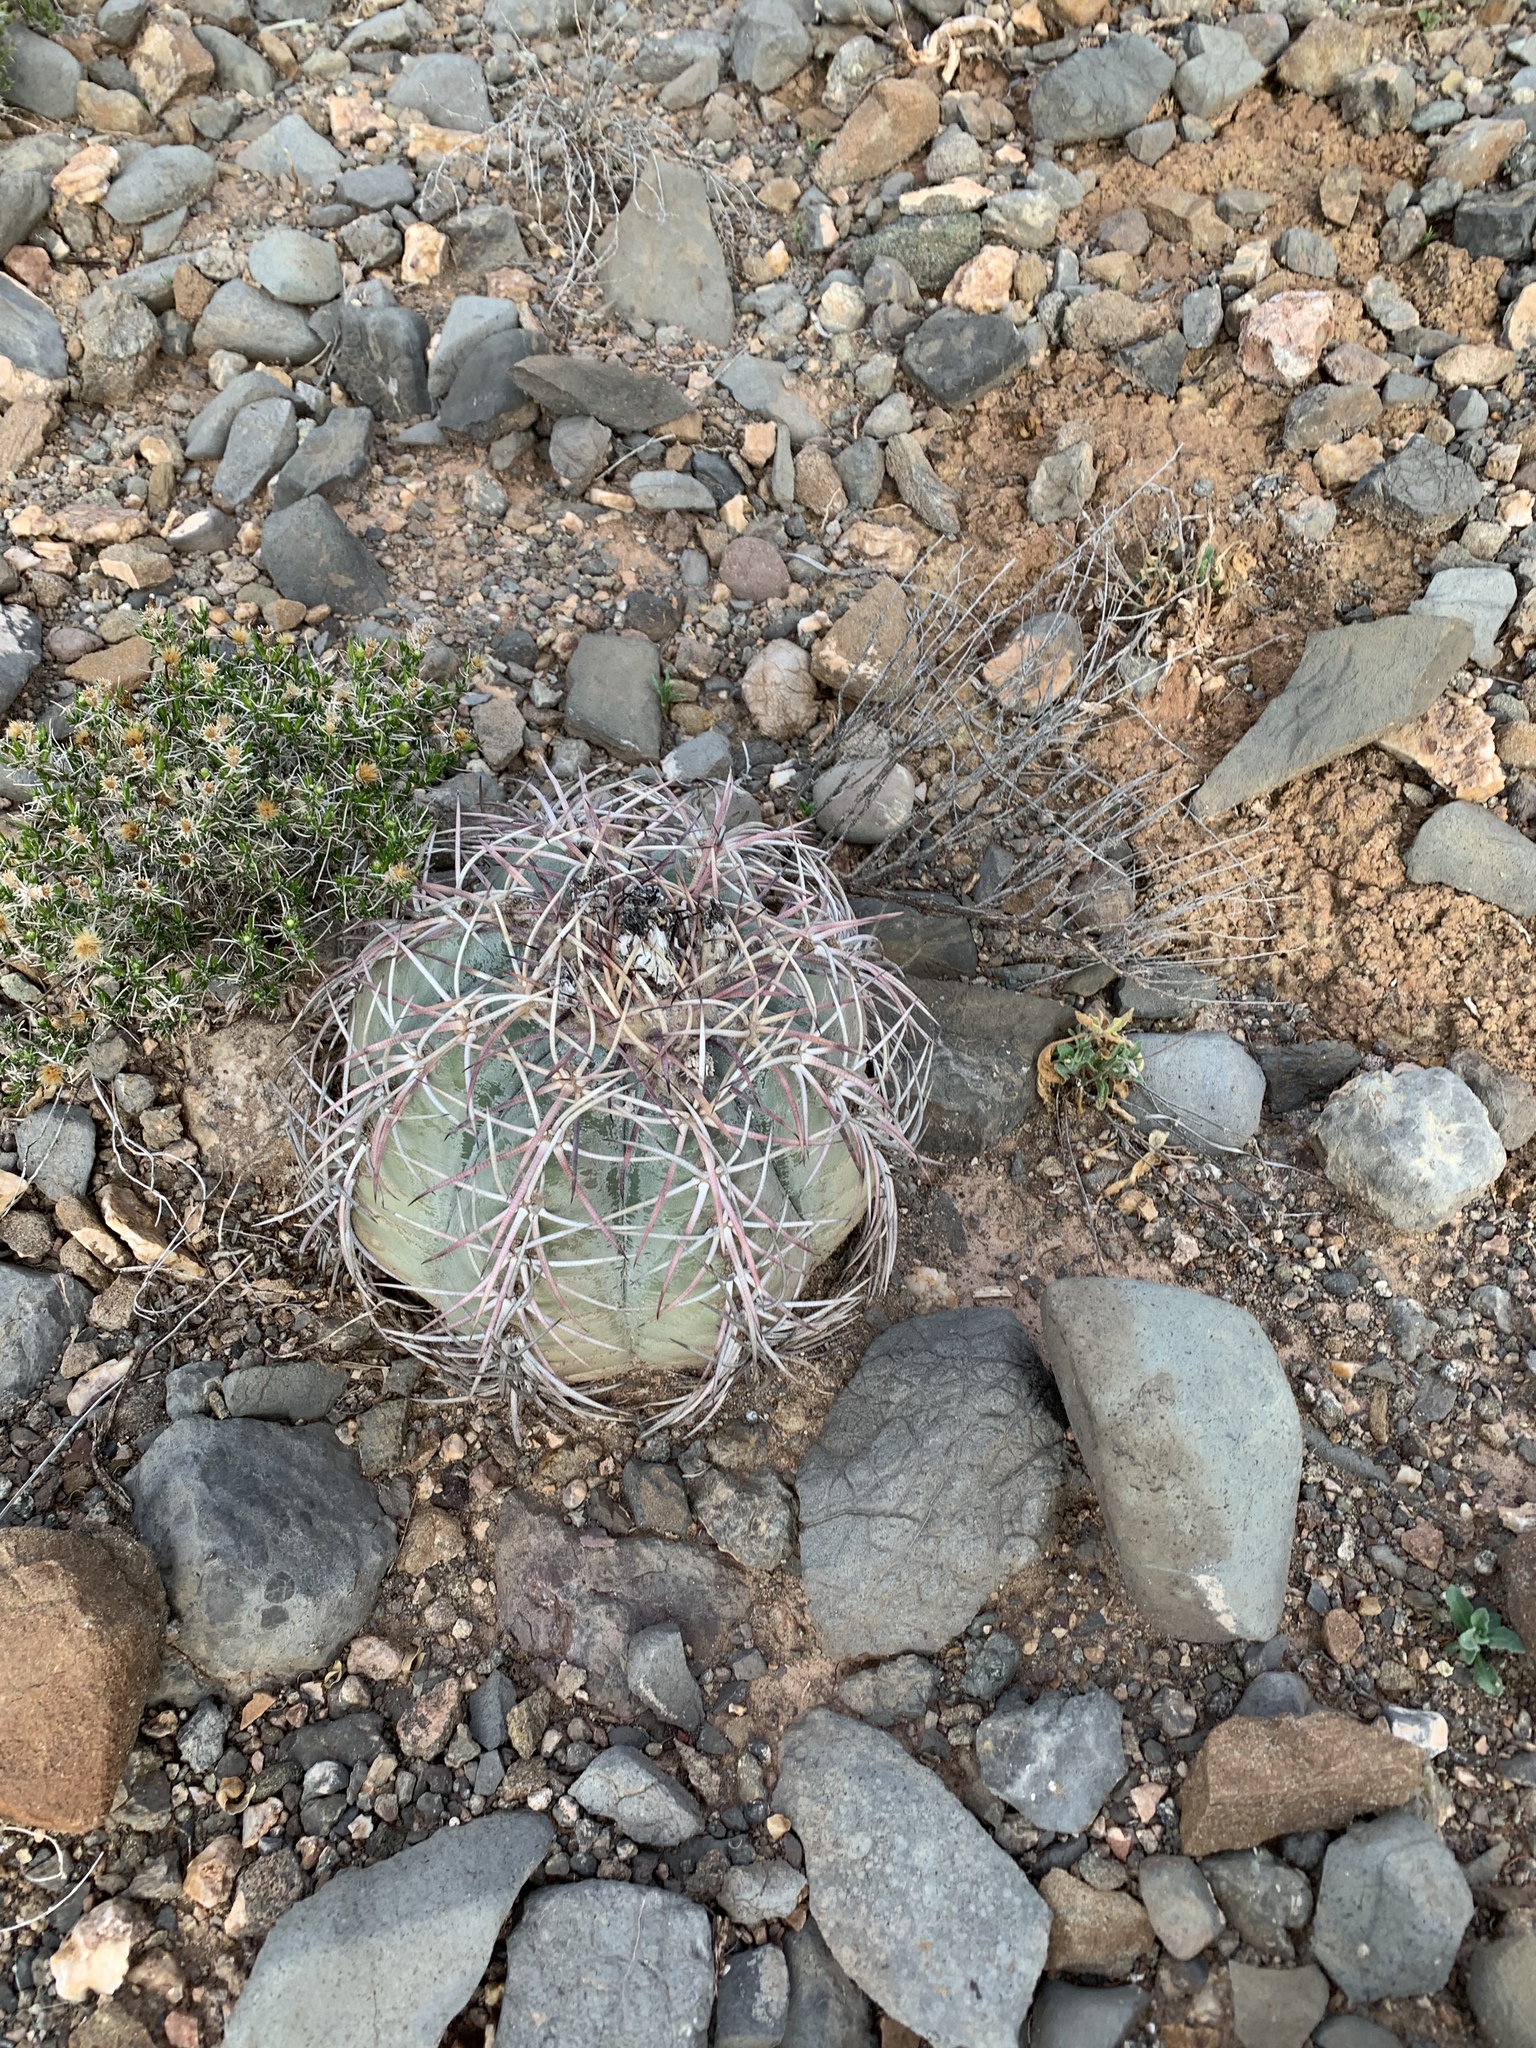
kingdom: Plantae
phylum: Tracheophyta
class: Magnoliopsida
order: Caryophyllales
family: Cactaceae
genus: Echinocactus
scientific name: Echinocactus horizonthalonius
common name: Devilshead
